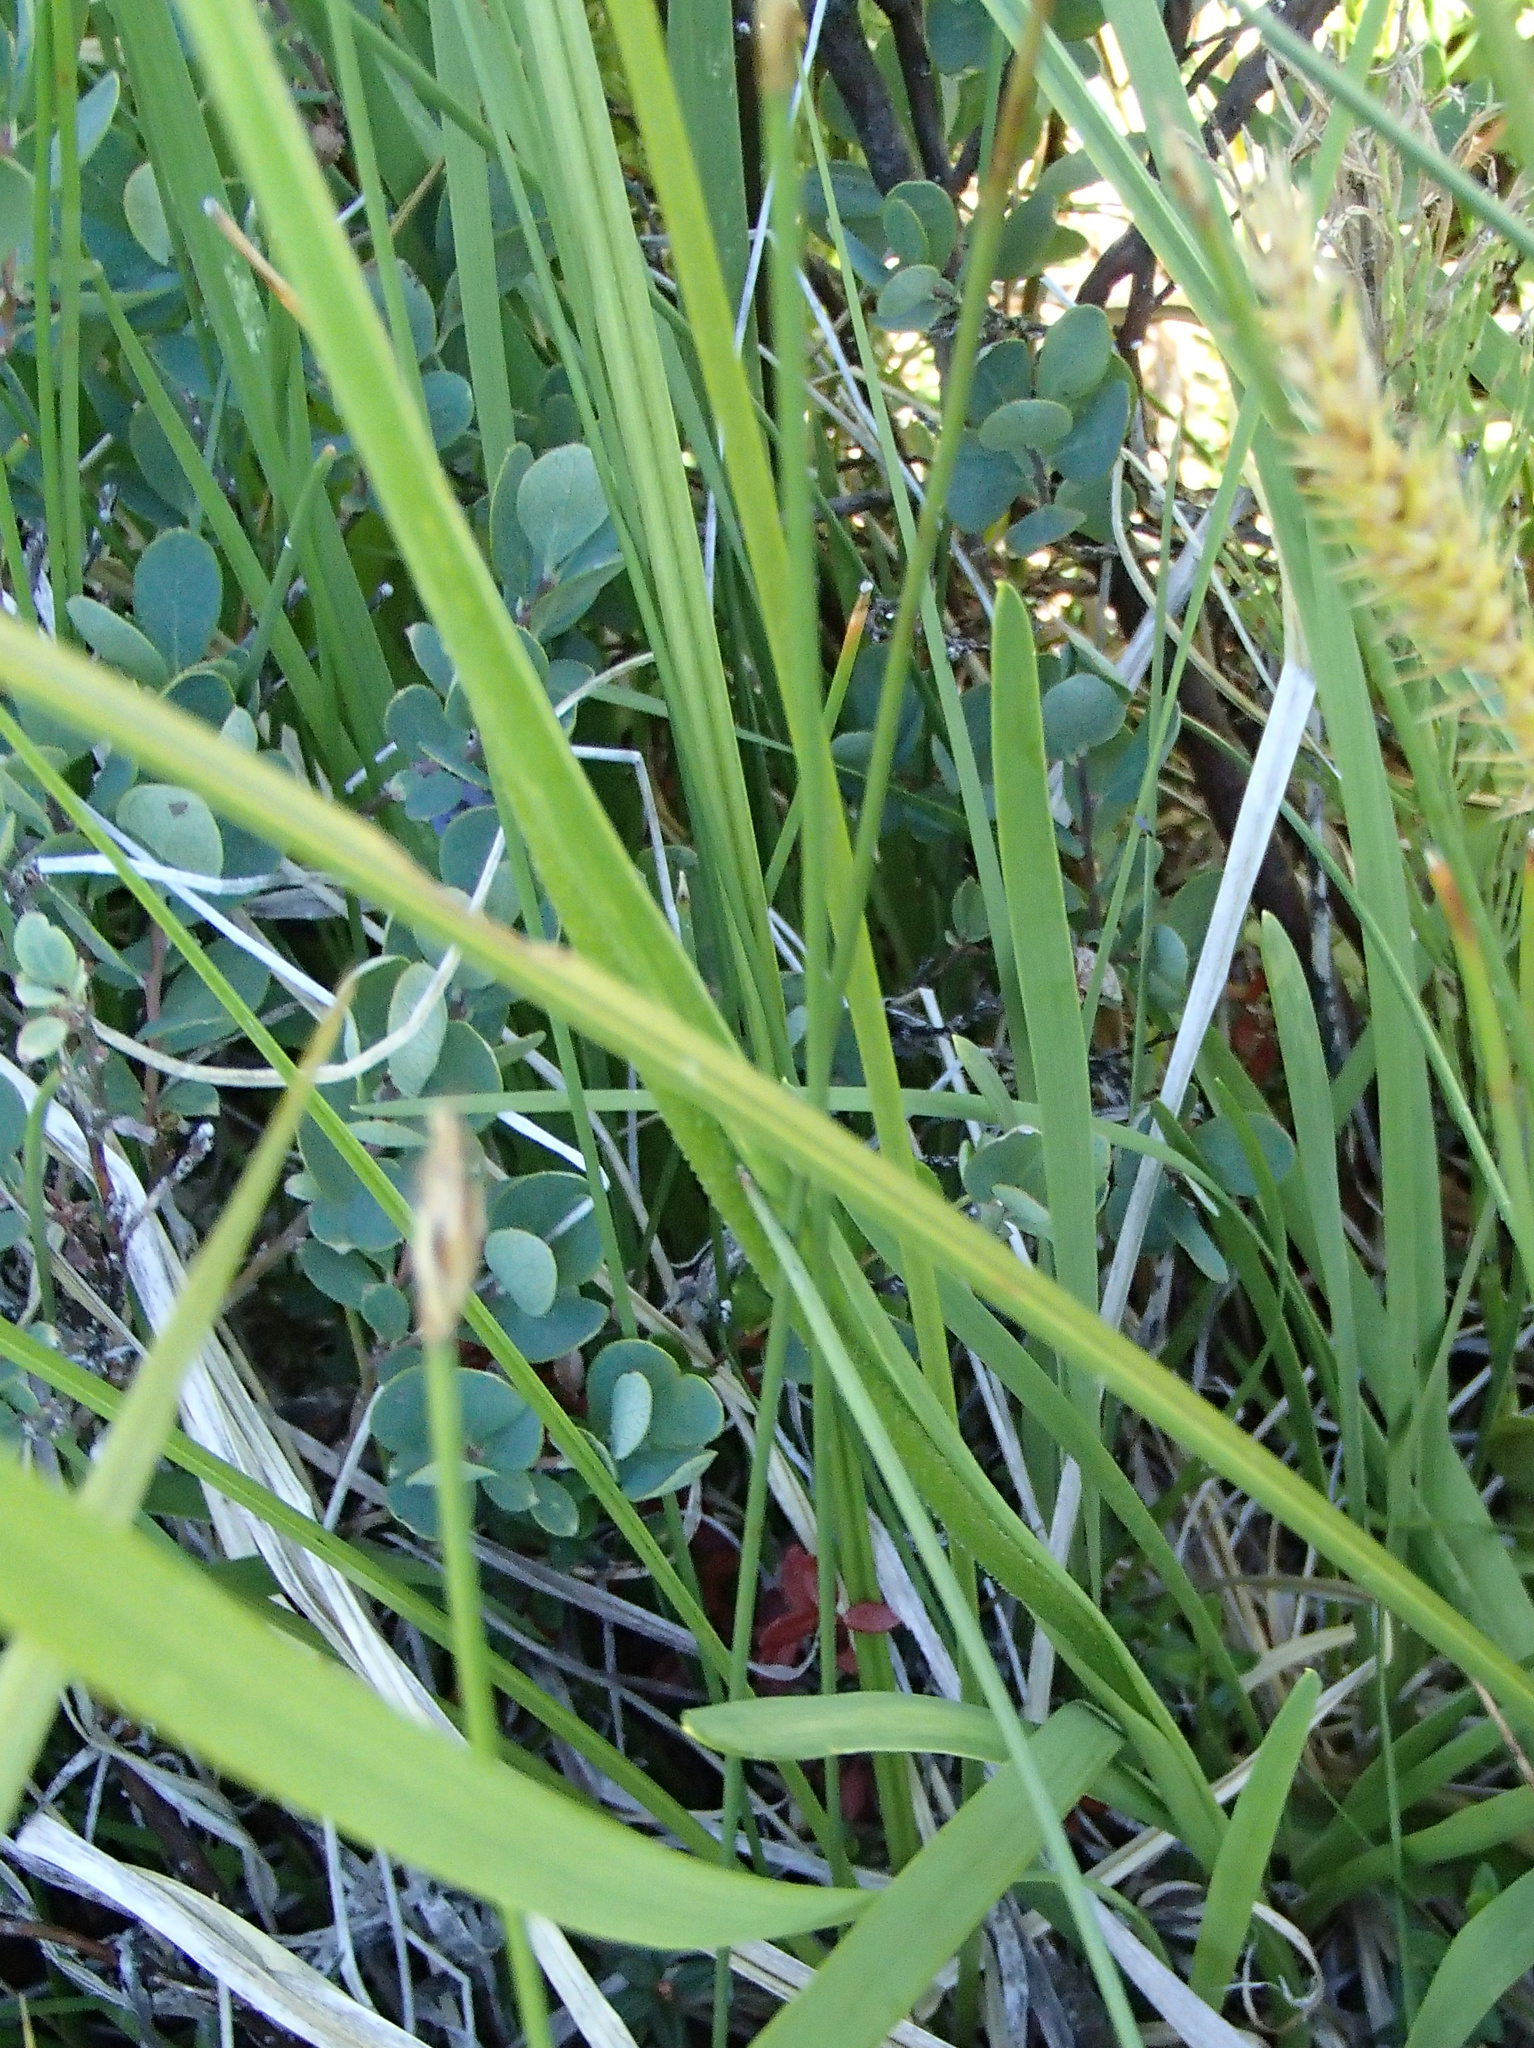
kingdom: Plantae
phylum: Tracheophyta
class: Liliopsida
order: Alismatales
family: Tofieldiaceae
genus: Triantha
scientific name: Triantha occidentalis
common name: Western false asphodel
